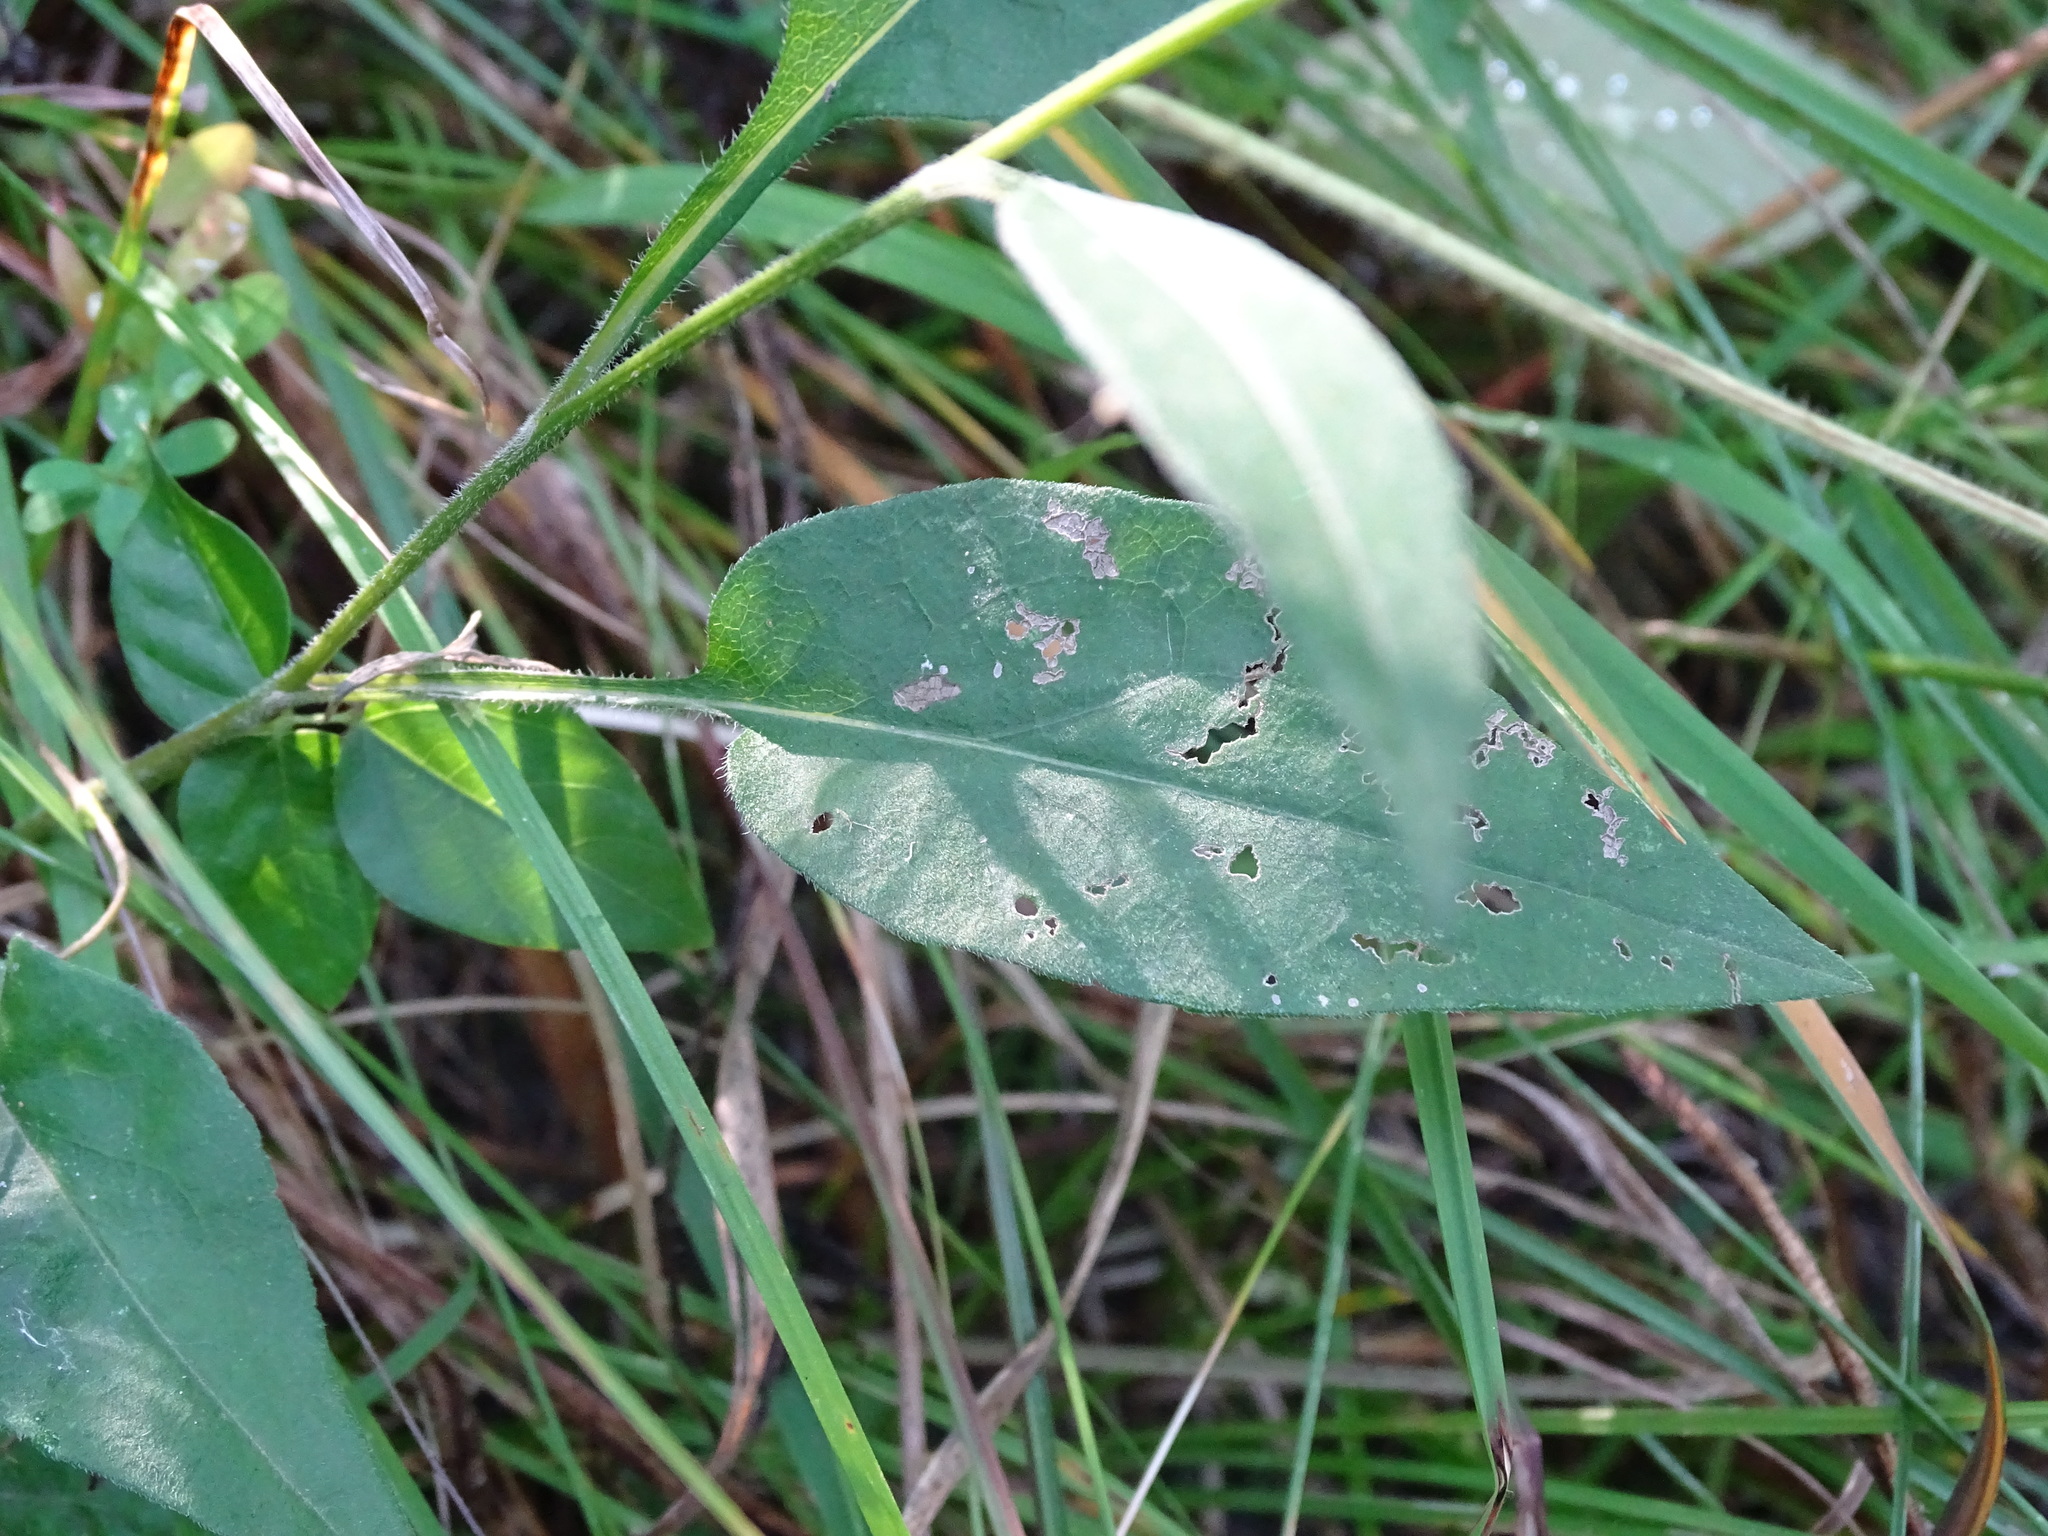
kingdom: Plantae
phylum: Tracheophyta
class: Magnoliopsida
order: Asterales
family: Asteraceae
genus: Symphyotrichum
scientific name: Symphyotrichum oolentangiense
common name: Azure aster
